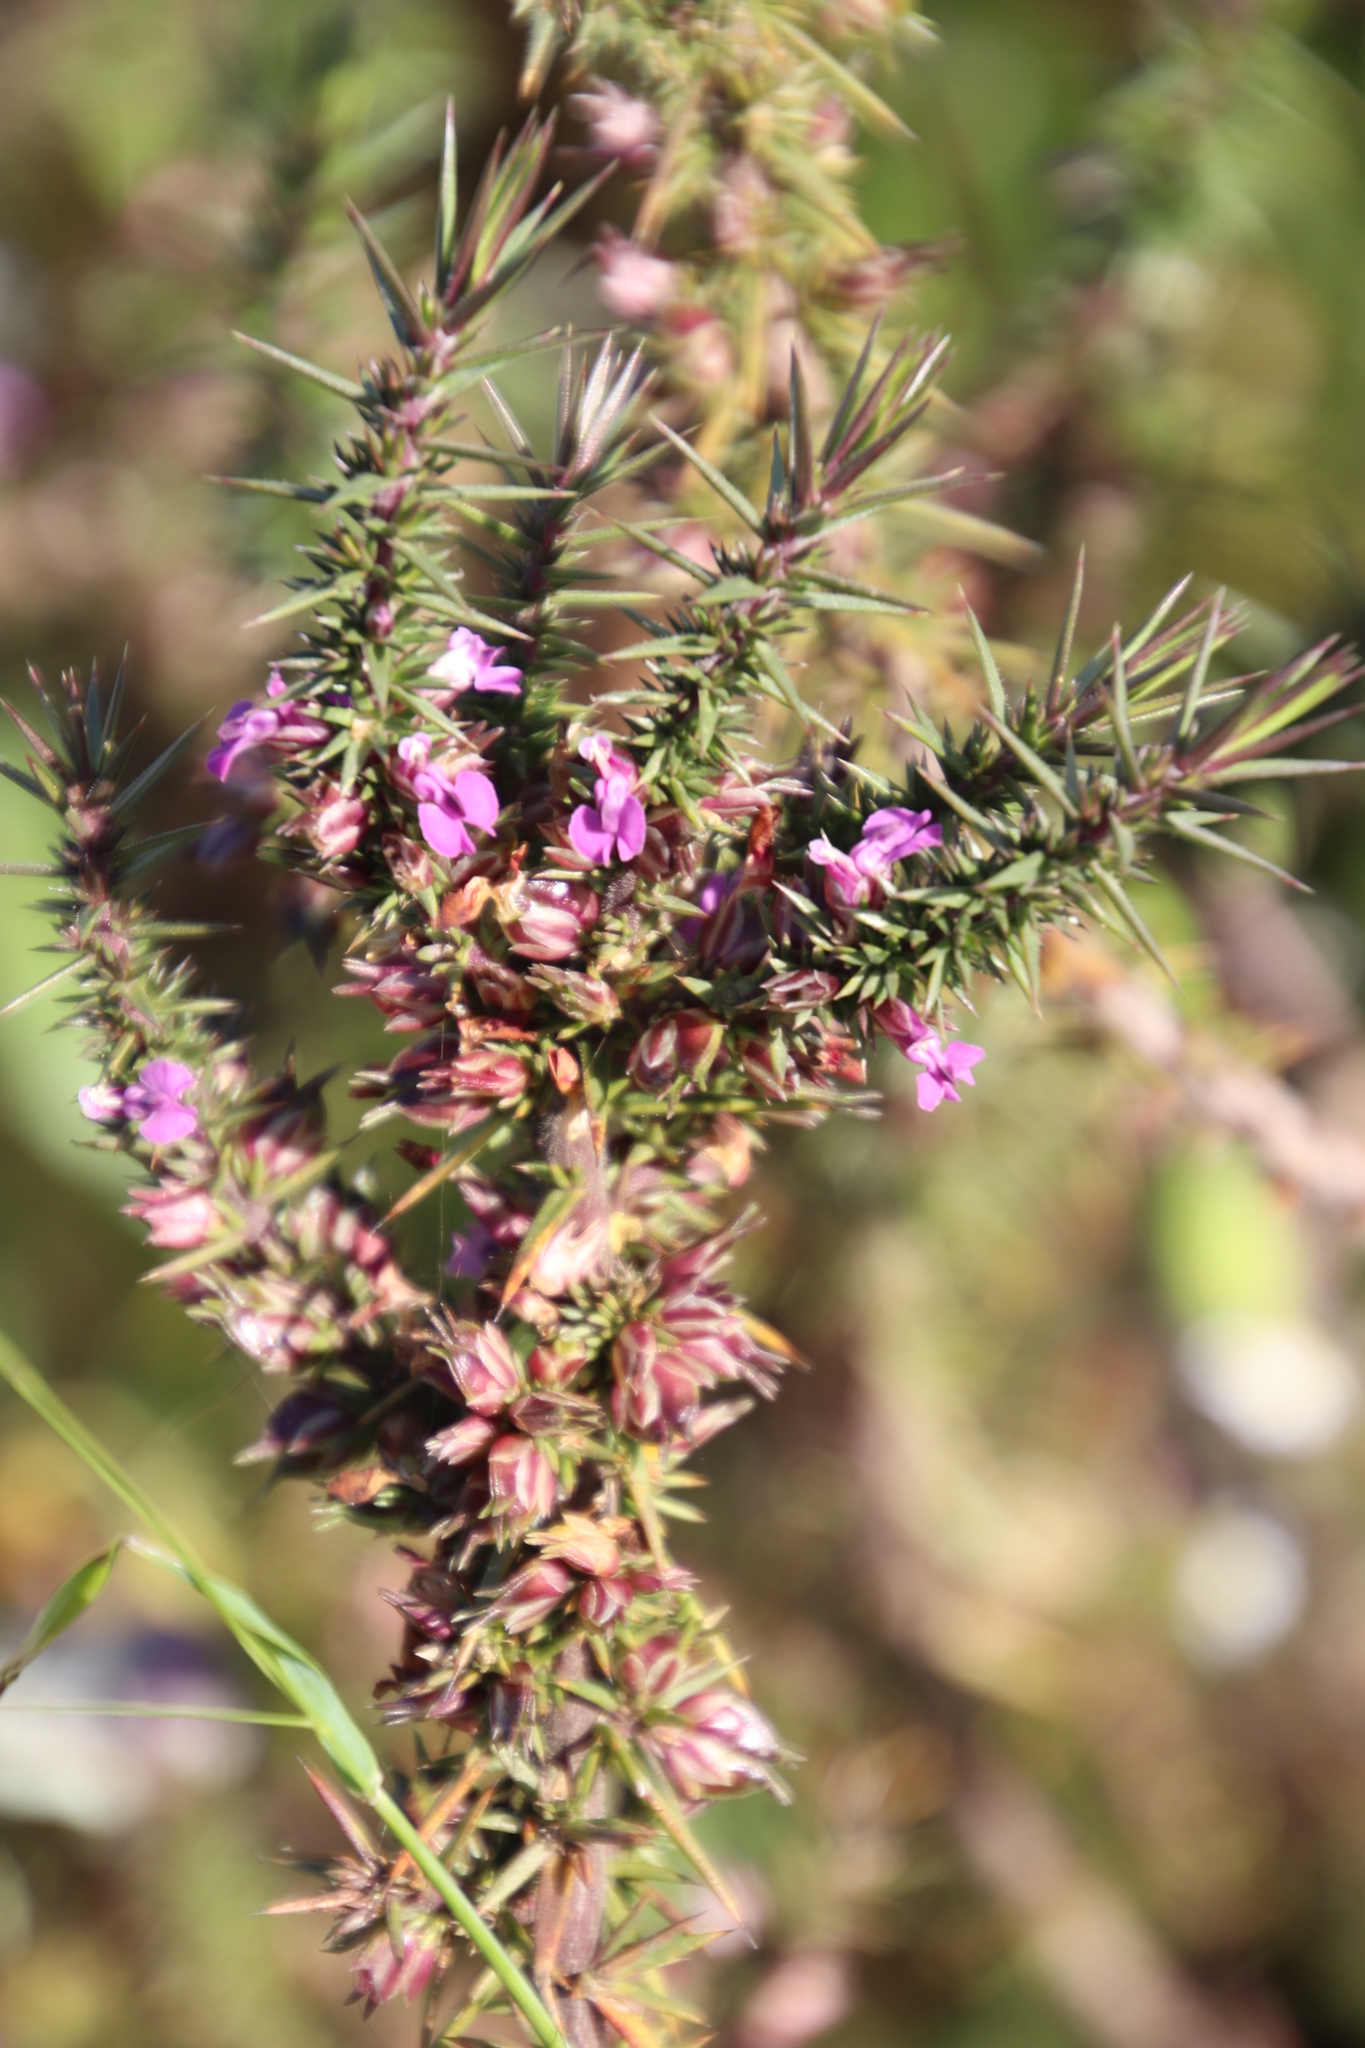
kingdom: Plantae
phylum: Tracheophyta
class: Magnoliopsida
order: Fabales
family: Polygalaceae
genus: Muraltia
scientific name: Muraltia ononidifolia
